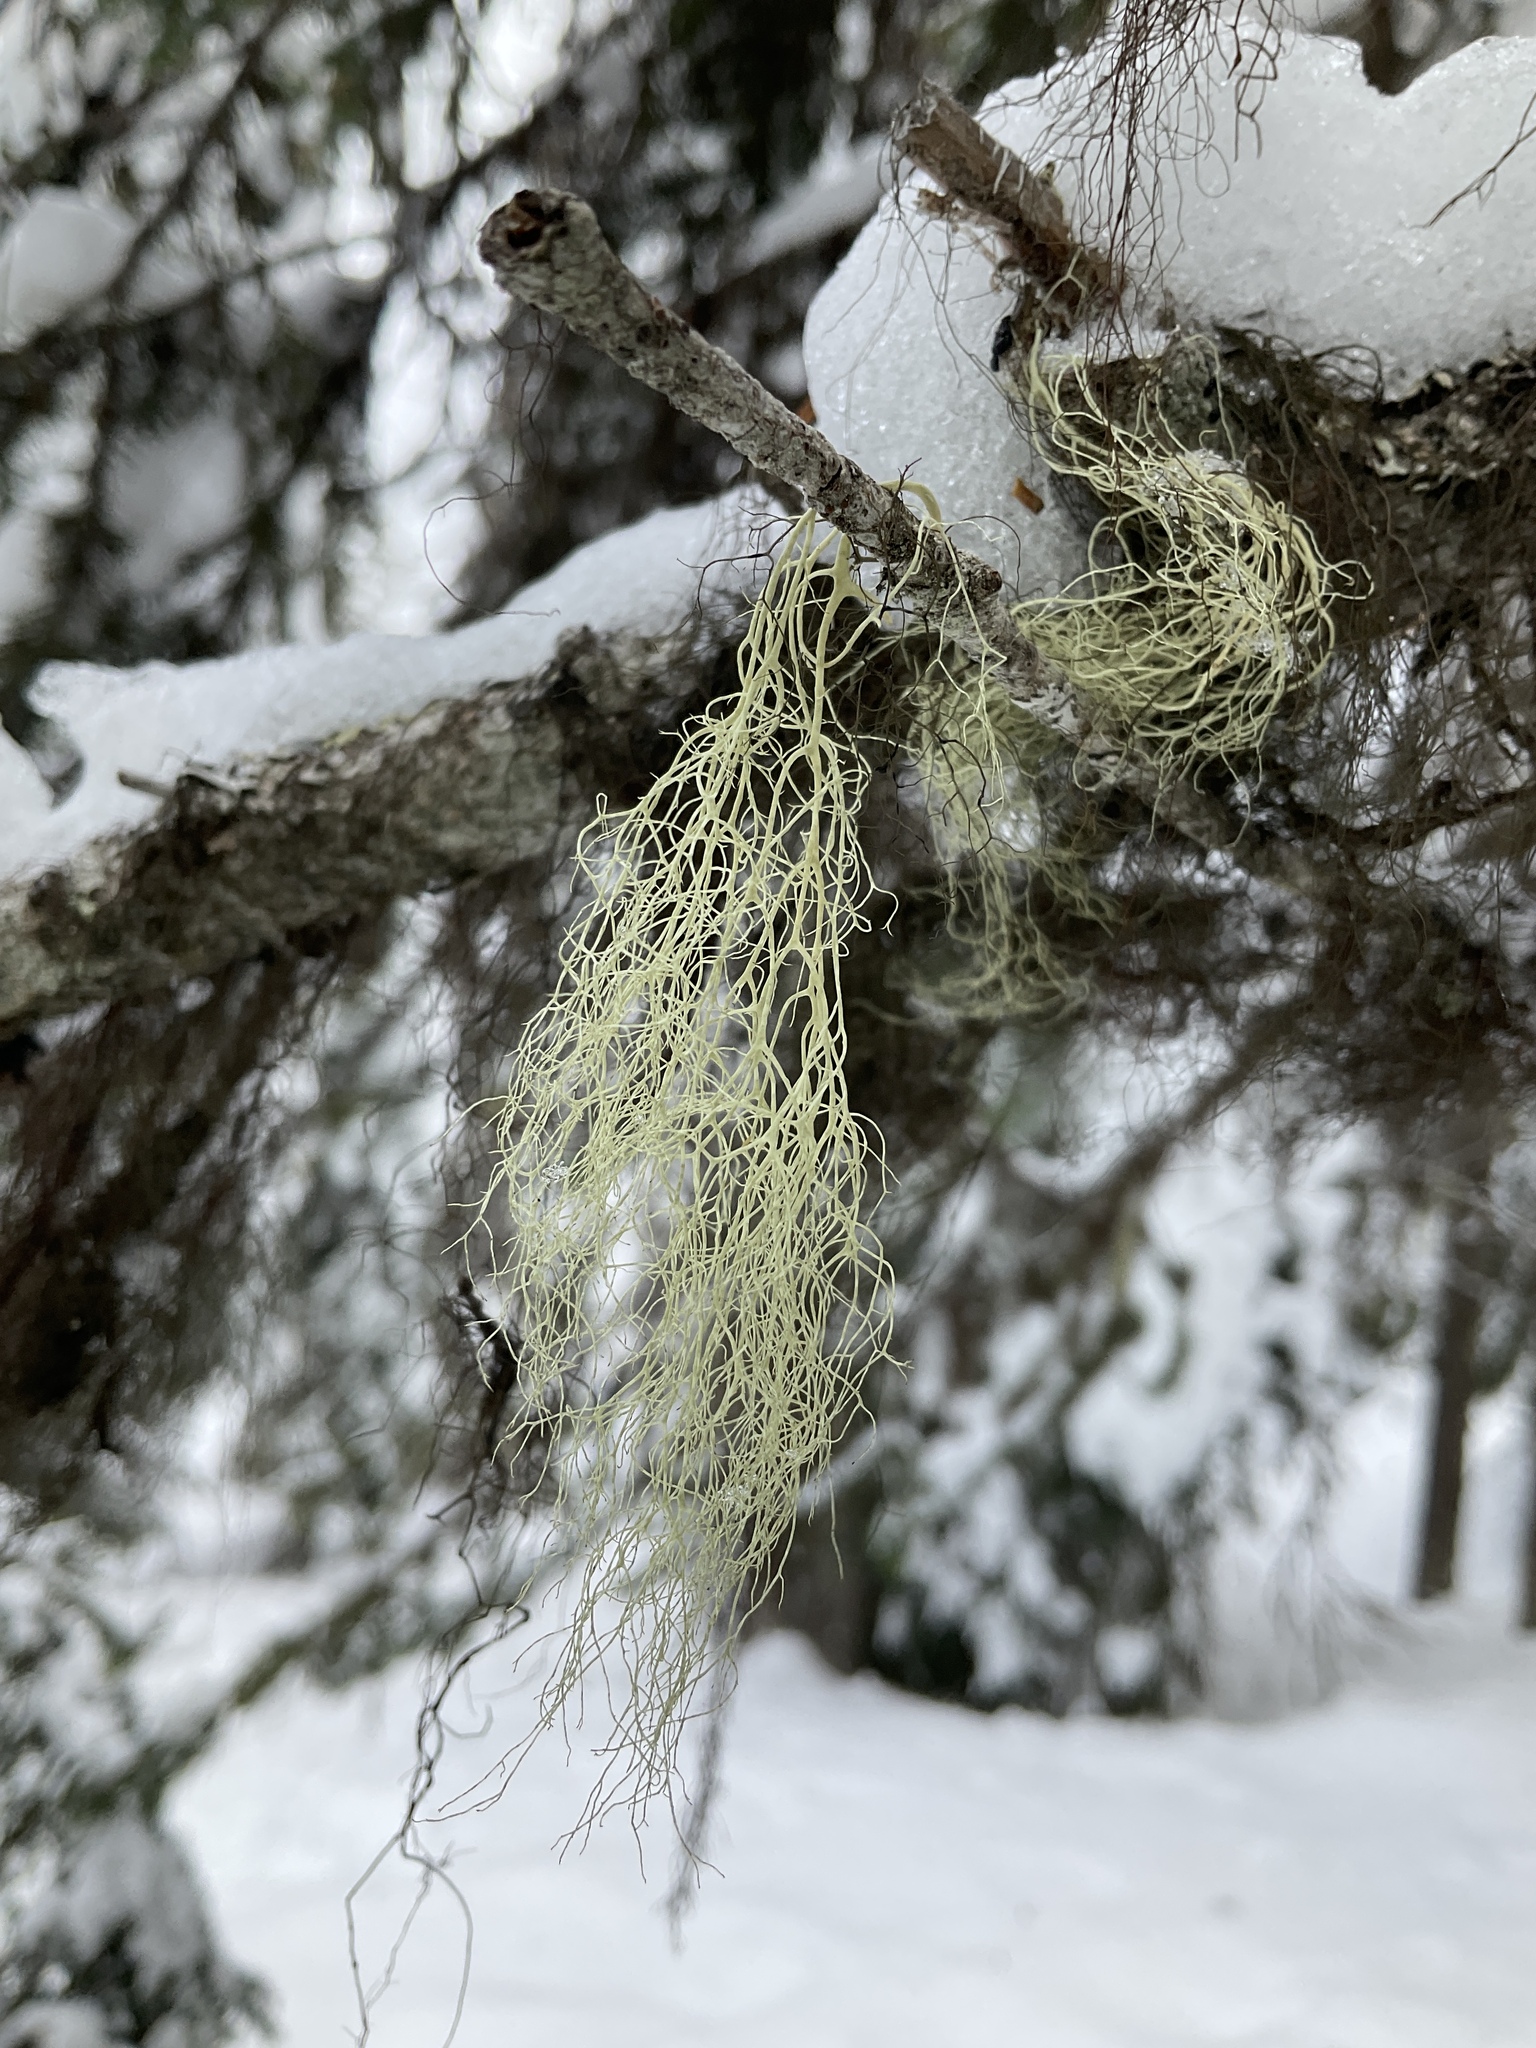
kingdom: Fungi
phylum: Ascomycota
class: Lecanoromycetes
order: Lecanorales
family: Parmeliaceae
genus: Alectoria
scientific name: Alectoria sarmentosa
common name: Witch's hair
